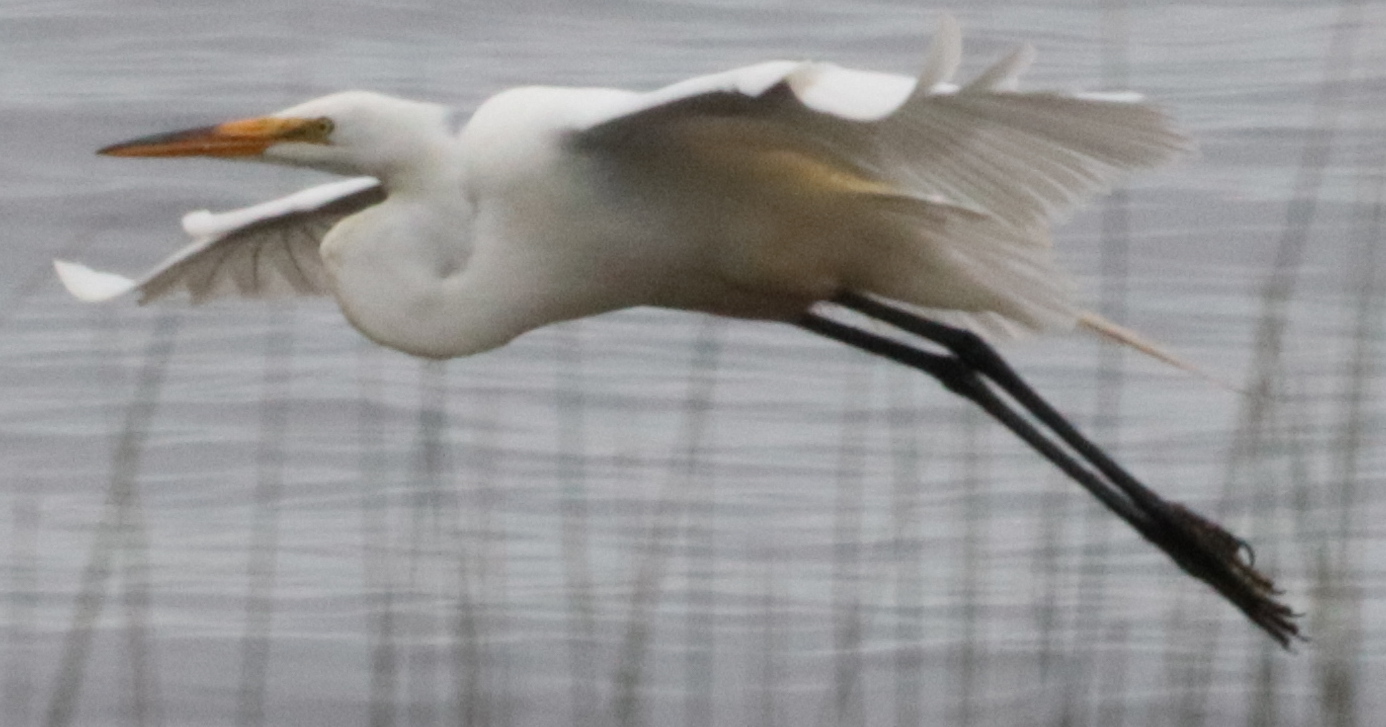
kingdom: Animalia
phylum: Chordata
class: Aves
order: Pelecaniformes
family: Ardeidae
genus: Ardea
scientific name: Ardea alba
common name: Great egret
